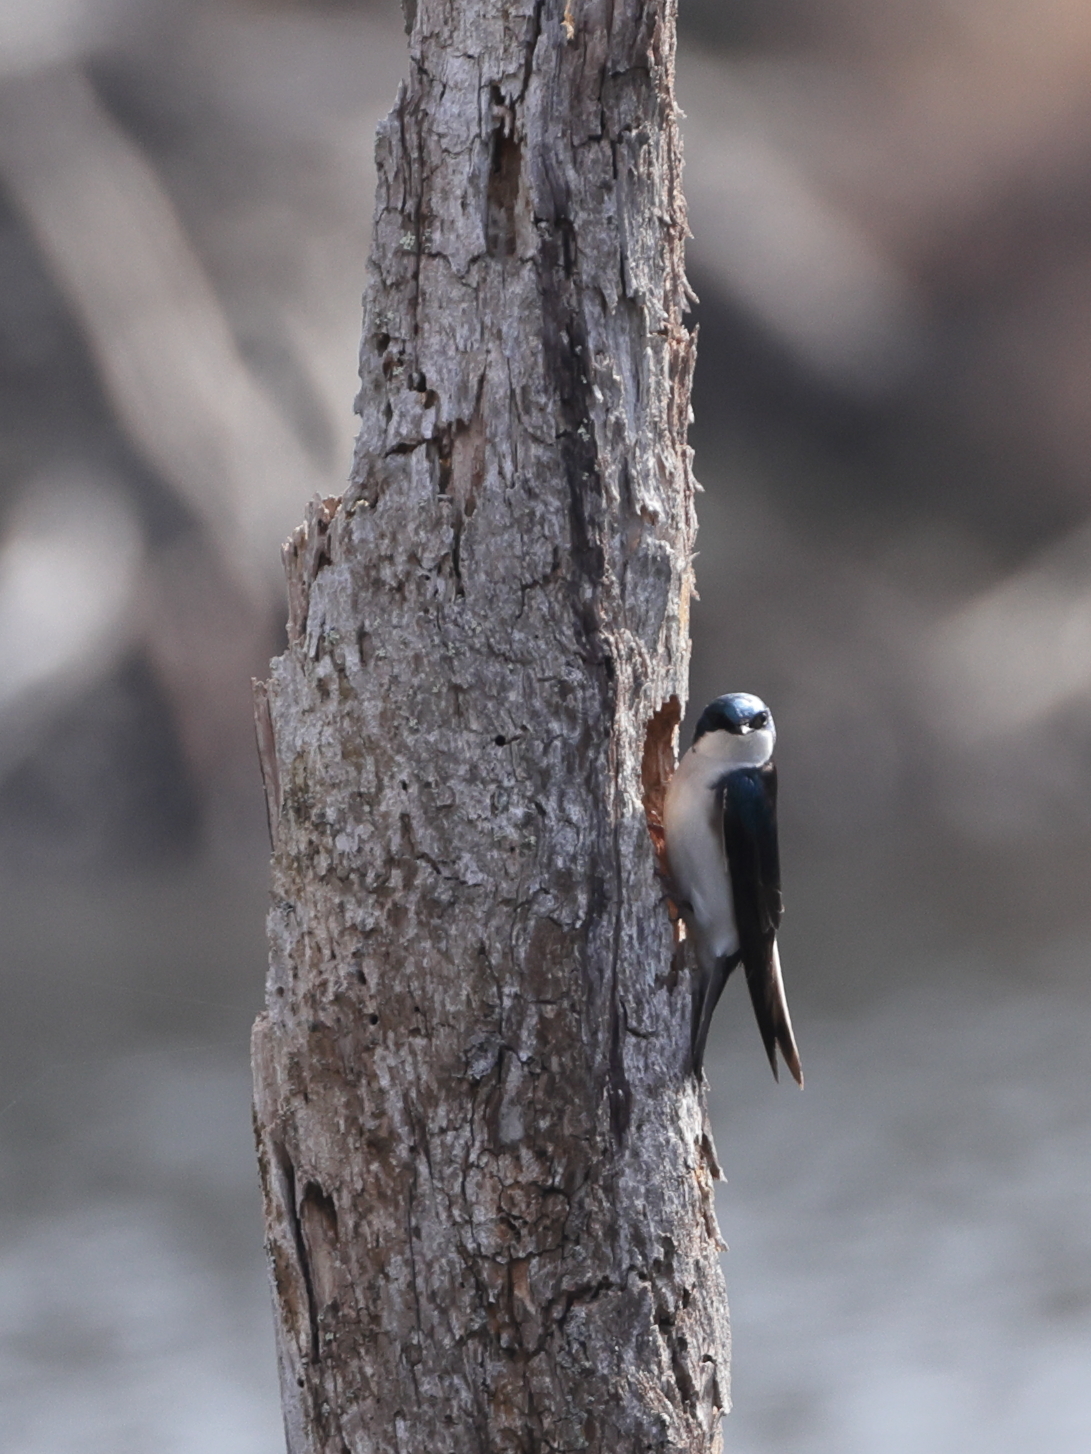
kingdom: Animalia
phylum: Chordata
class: Aves
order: Passeriformes
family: Hirundinidae
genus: Tachycineta
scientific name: Tachycineta bicolor
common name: Tree swallow
